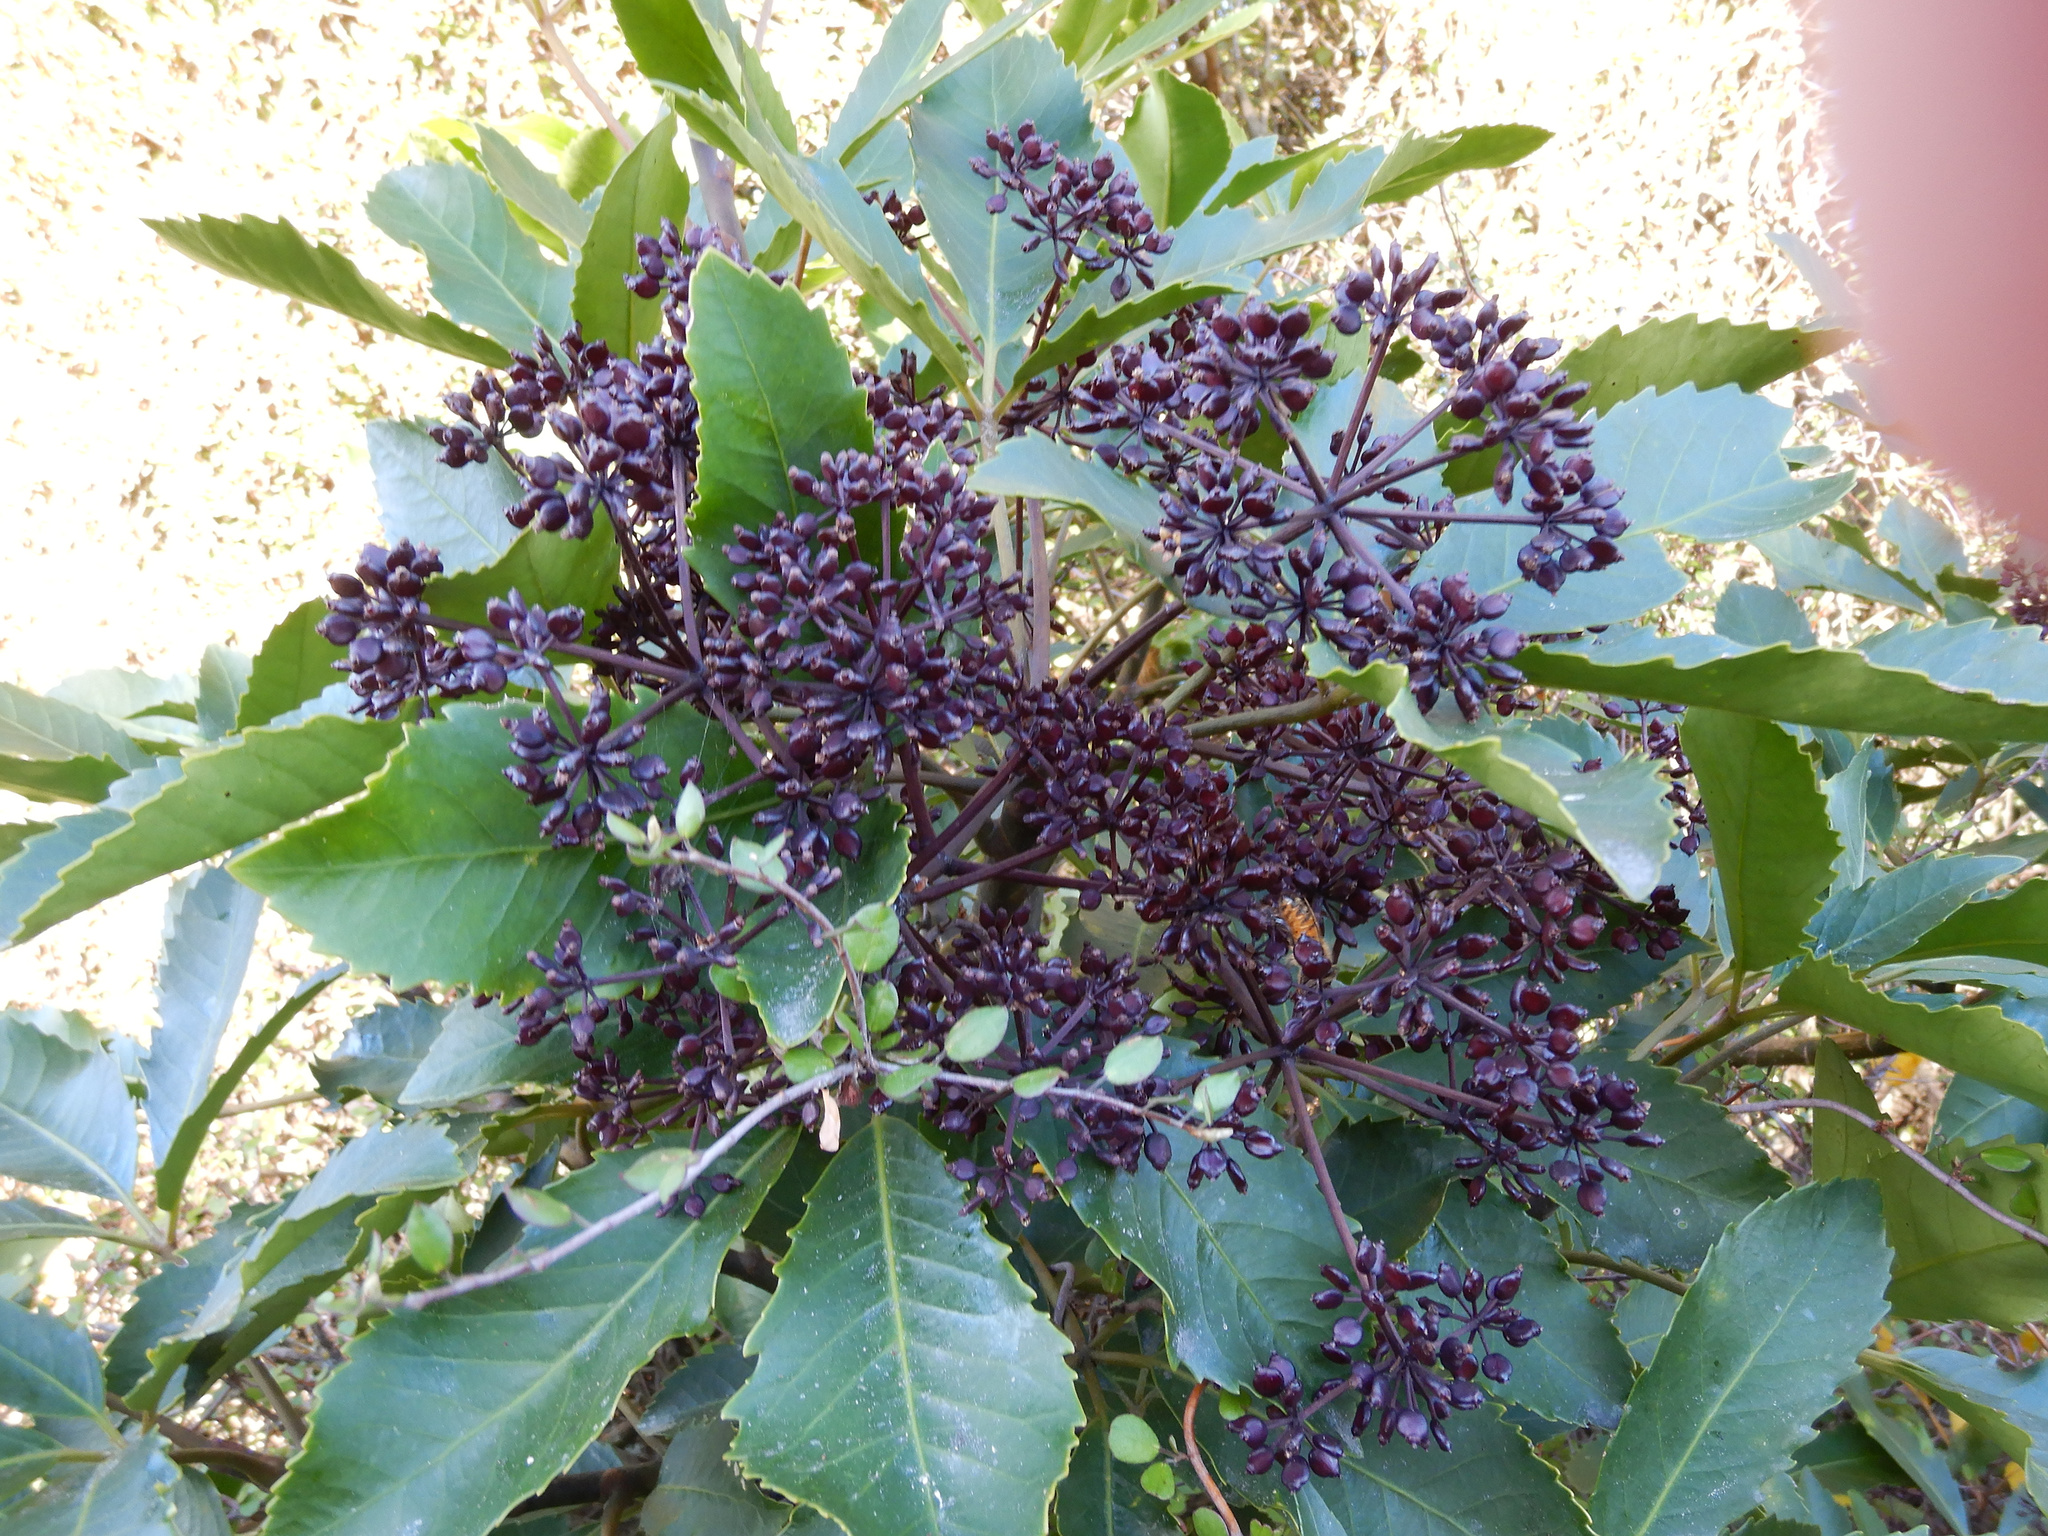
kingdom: Plantae
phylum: Tracheophyta
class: Magnoliopsida
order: Apiales
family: Araliaceae
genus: Neopanax
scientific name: Neopanax arboreus
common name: Five-fingers
